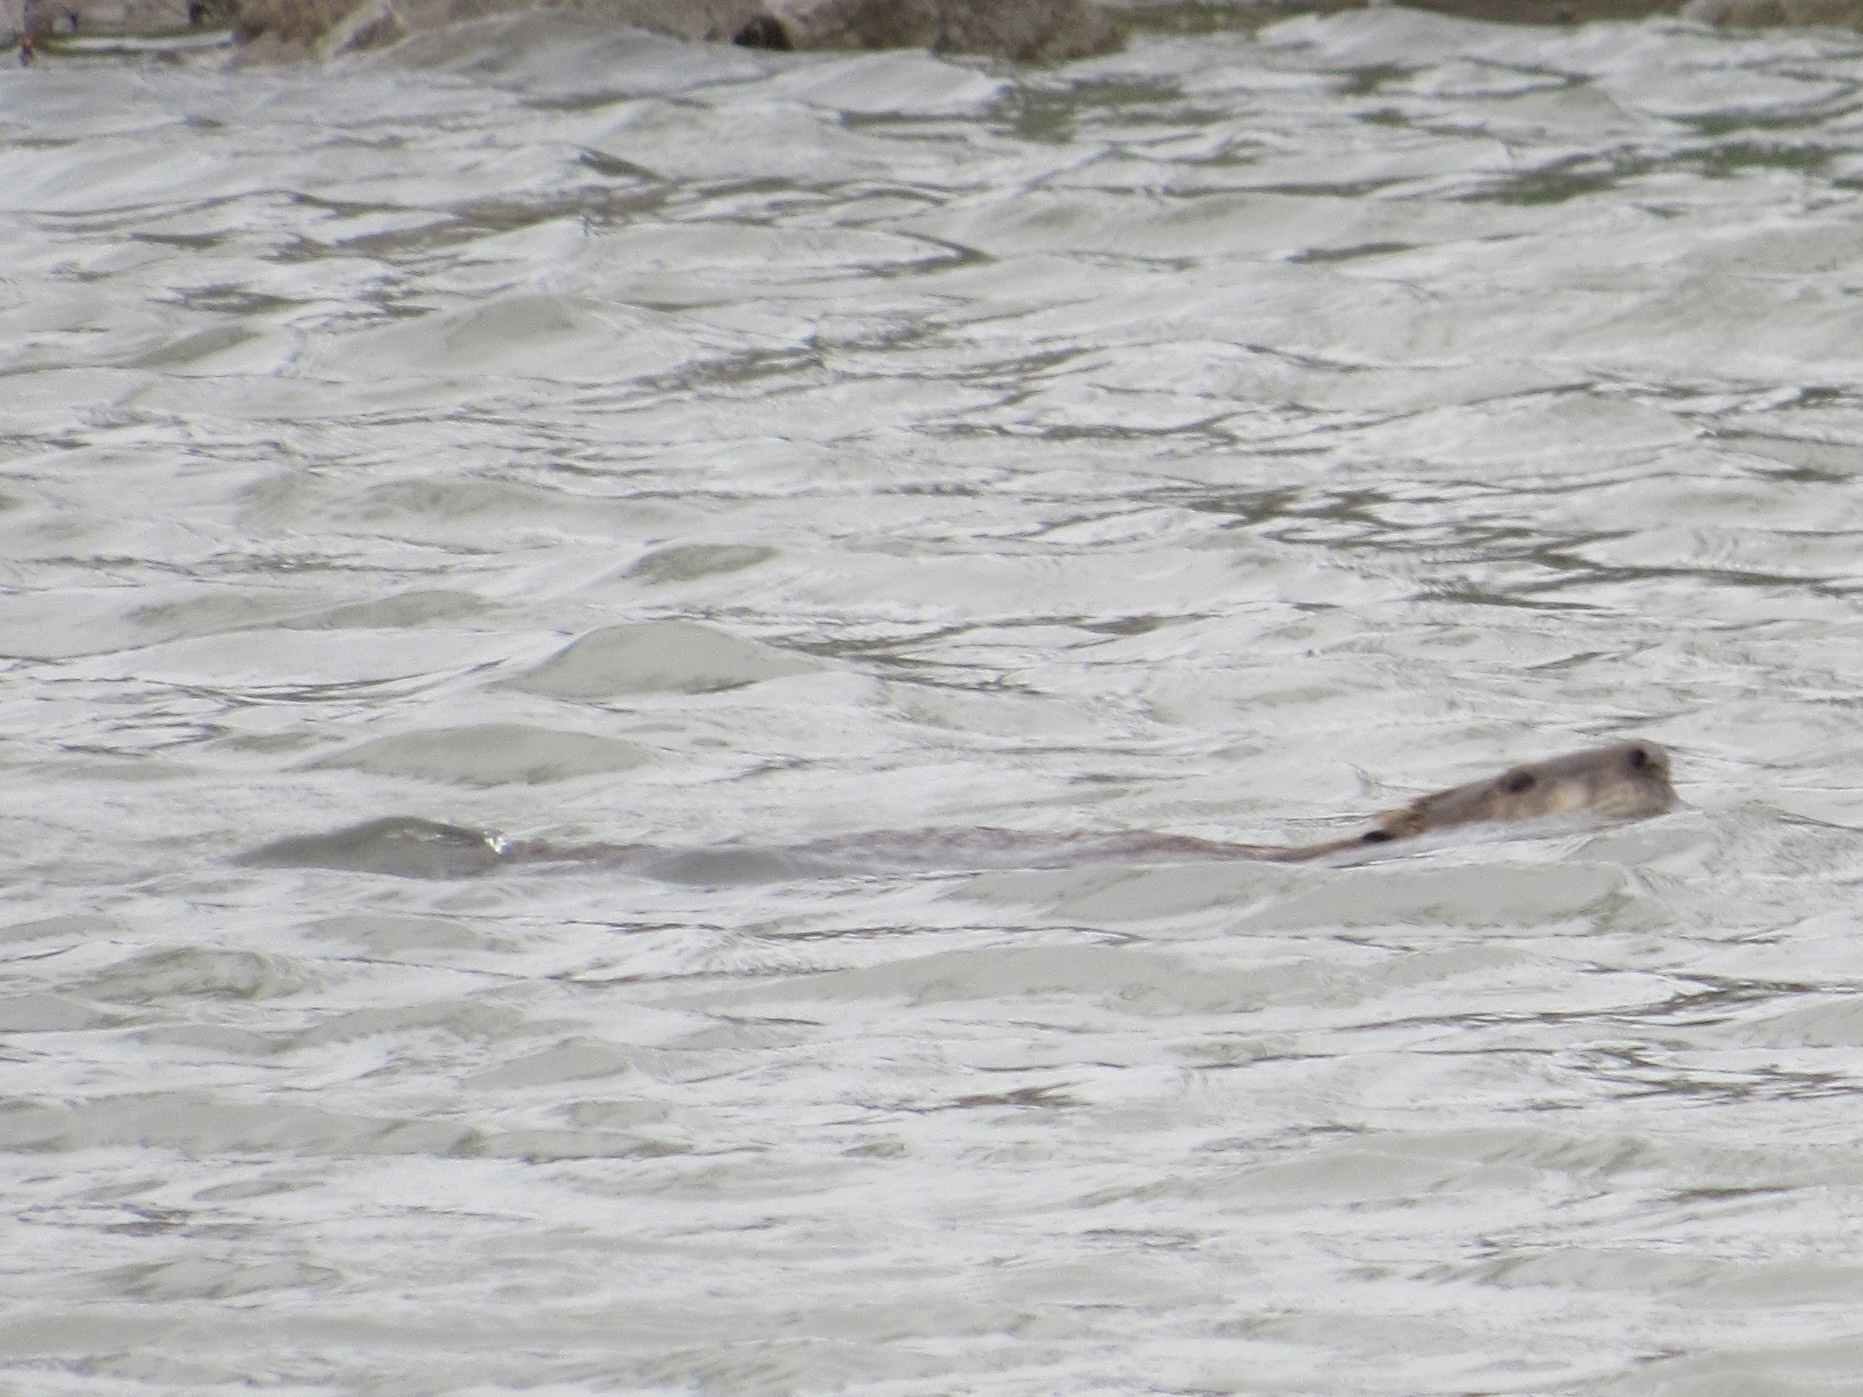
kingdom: Animalia
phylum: Chordata
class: Mammalia
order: Rodentia
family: Castoridae
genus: Castor
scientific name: Castor canadensis
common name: American beaver
